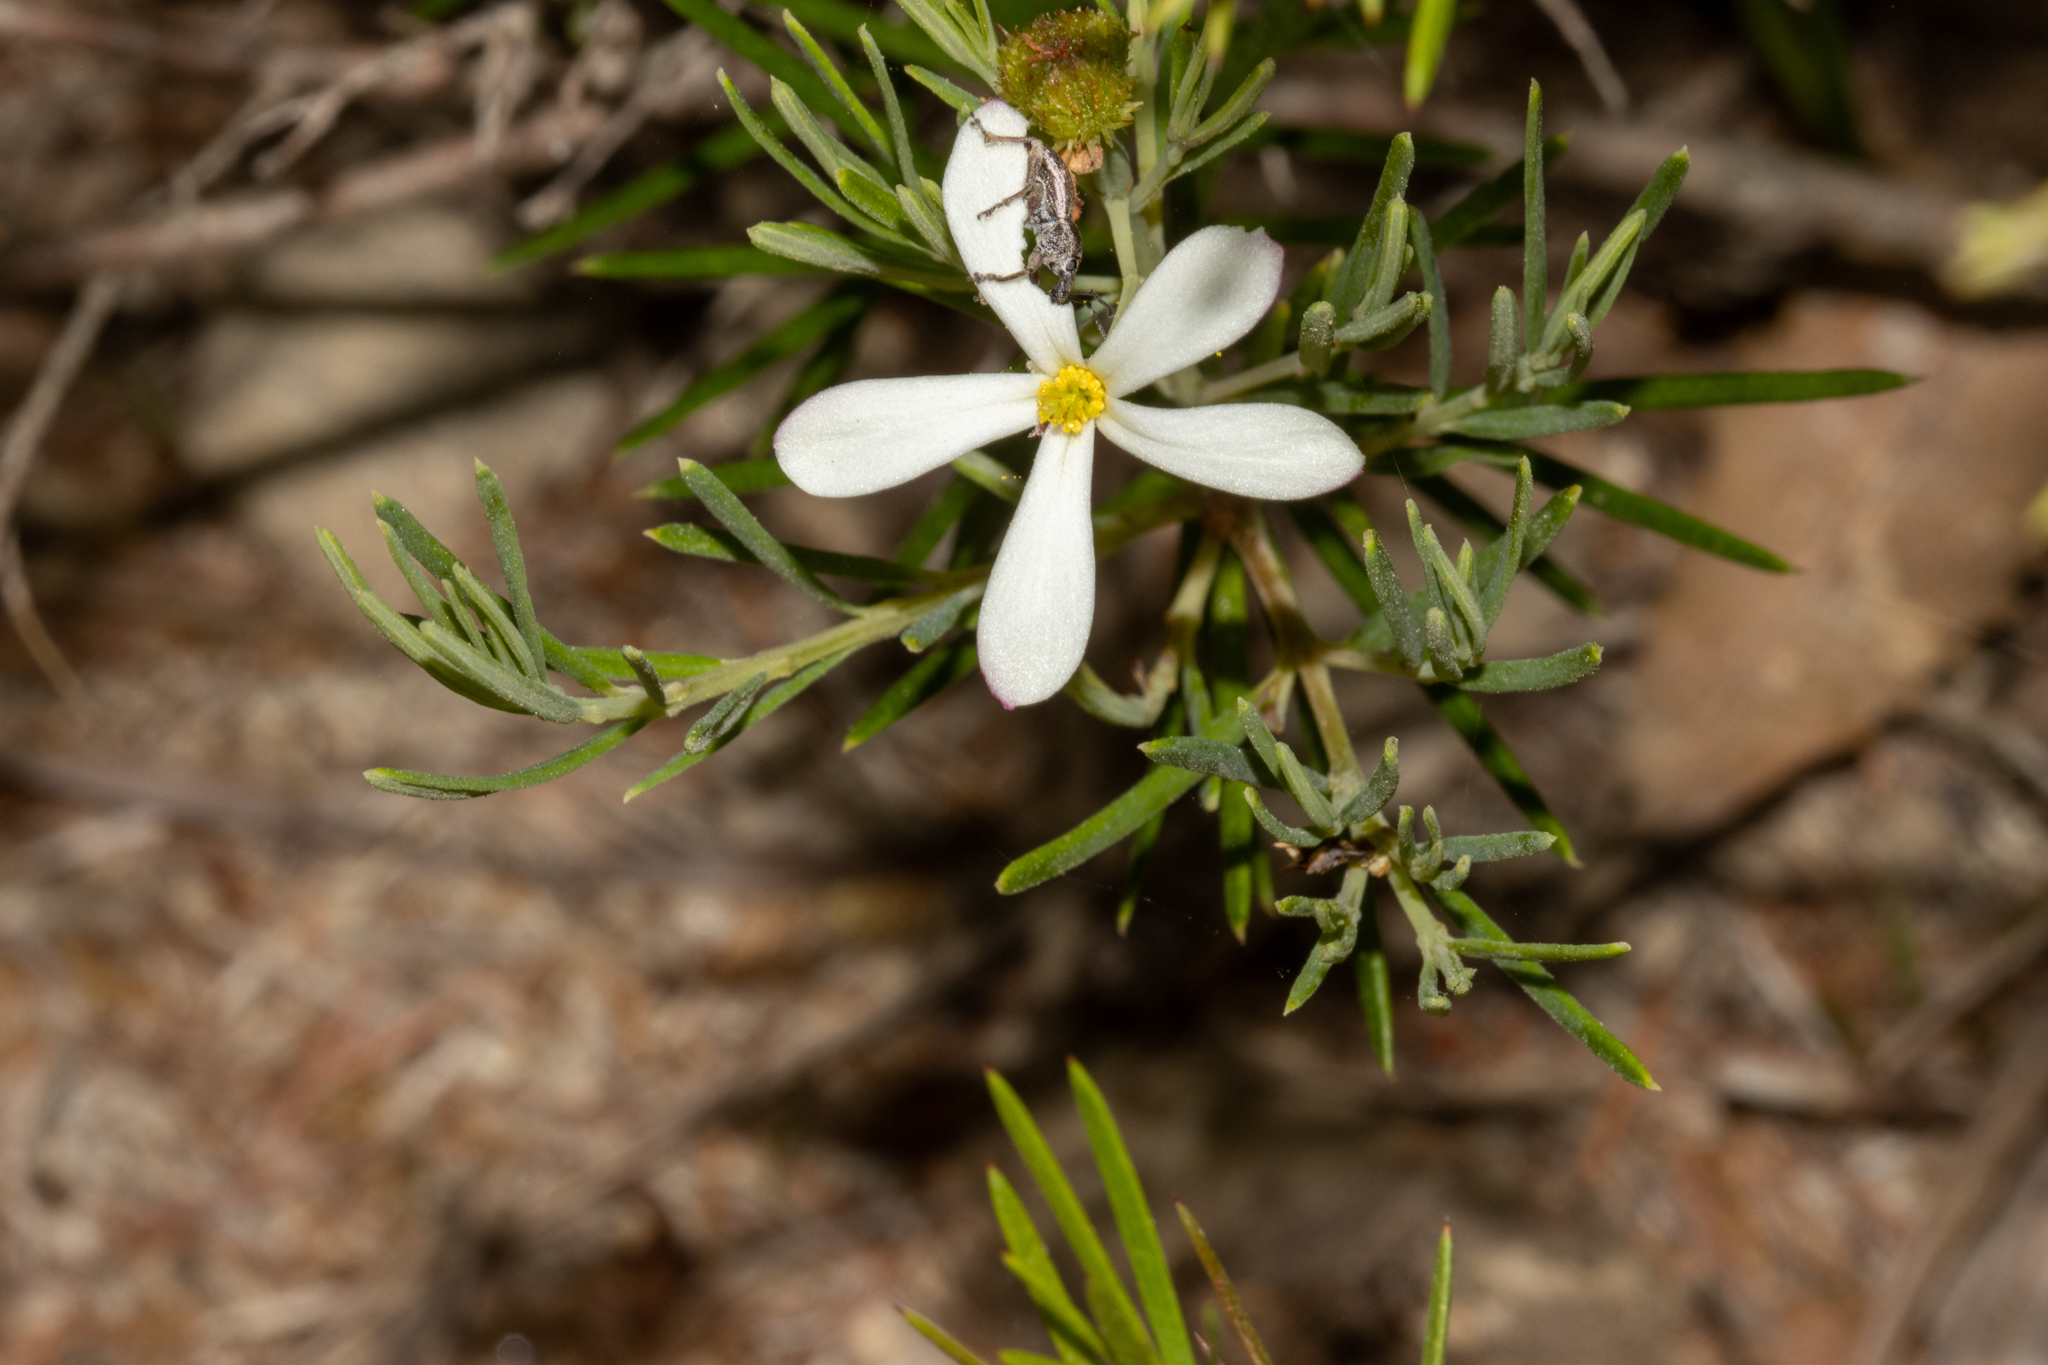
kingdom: Plantae
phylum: Tracheophyta
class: Magnoliopsida
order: Malpighiales
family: Euphorbiaceae
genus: Ricinocarpos
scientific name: Ricinocarpos pinifolius
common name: Weddingbush
